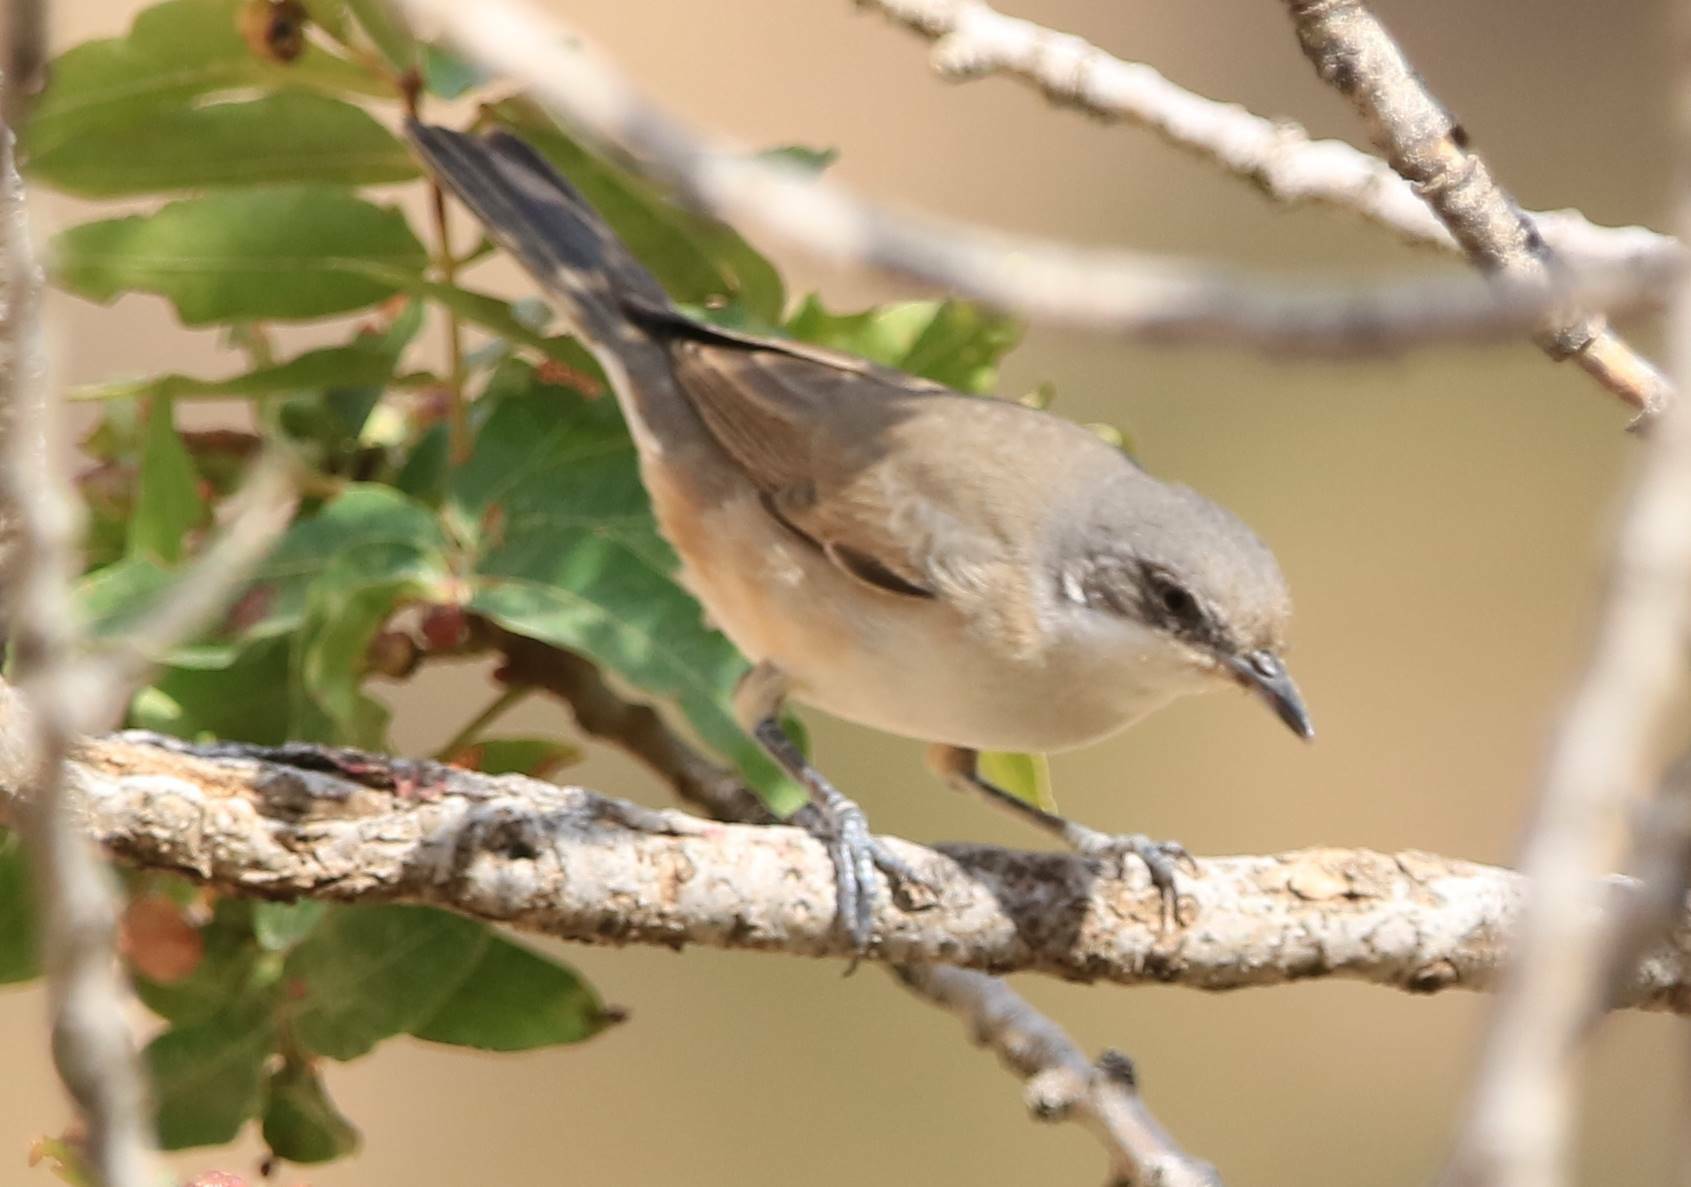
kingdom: Animalia
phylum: Chordata
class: Aves
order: Passeriformes
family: Sylviidae
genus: Sylvia
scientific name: Sylvia hortensis
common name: Orphean warbler
